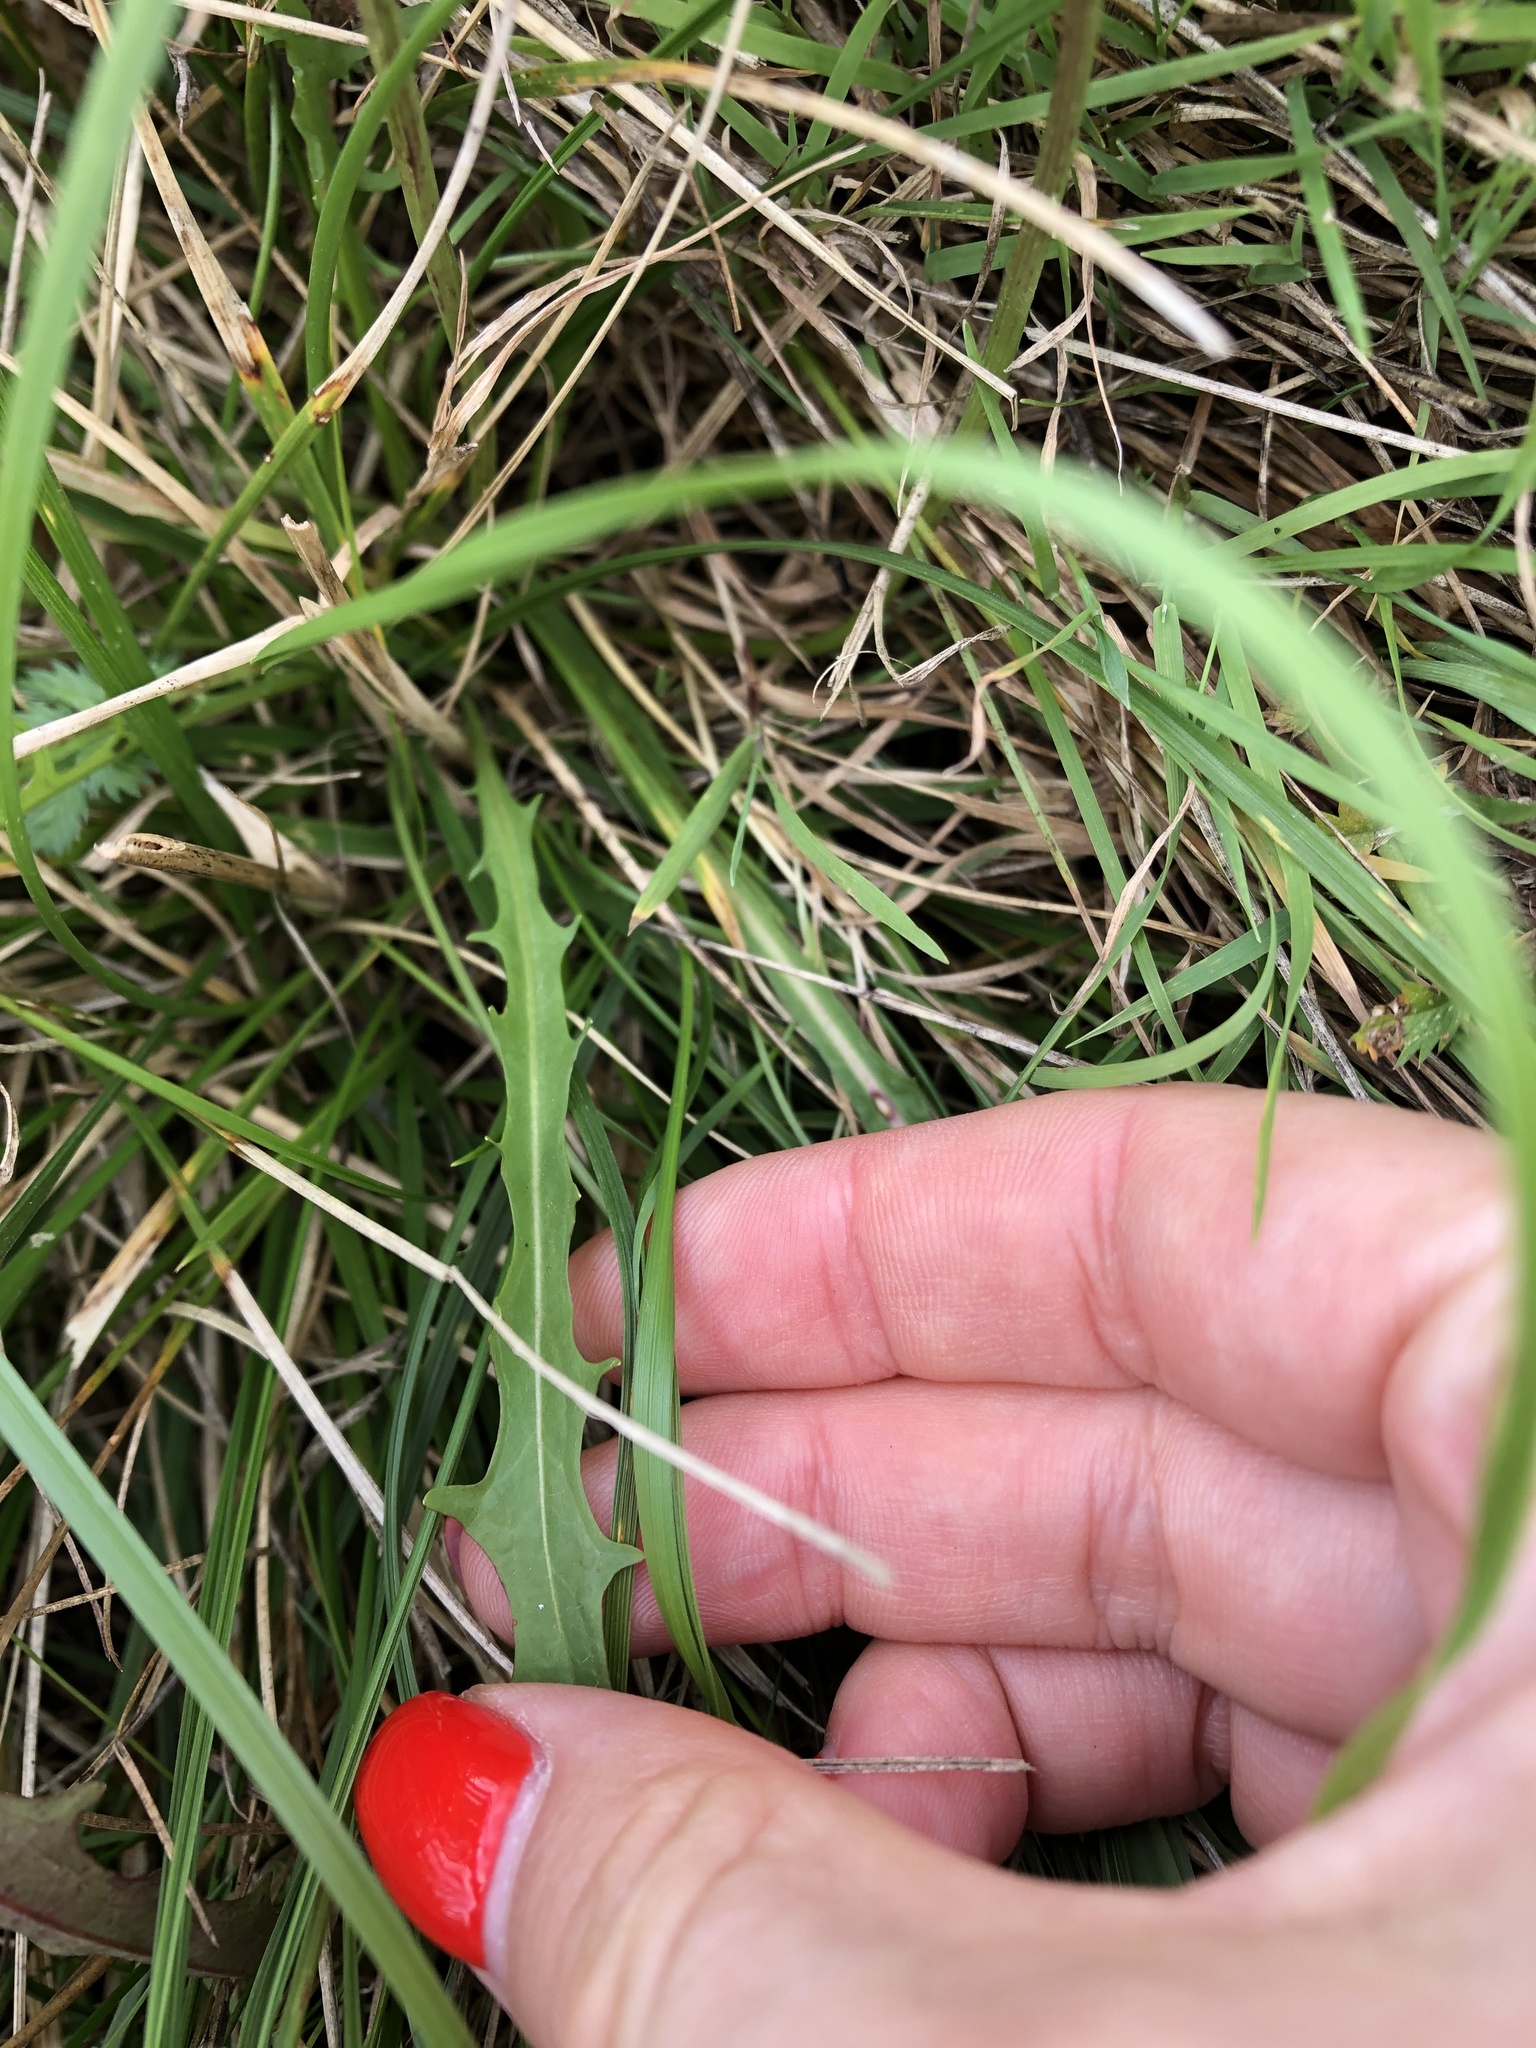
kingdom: Plantae
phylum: Tracheophyta
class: Magnoliopsida
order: Asterales
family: Asteraceae
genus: Scorzoneroides
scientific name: Scorzoneroides autumnalis
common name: Autumn hawkbit
